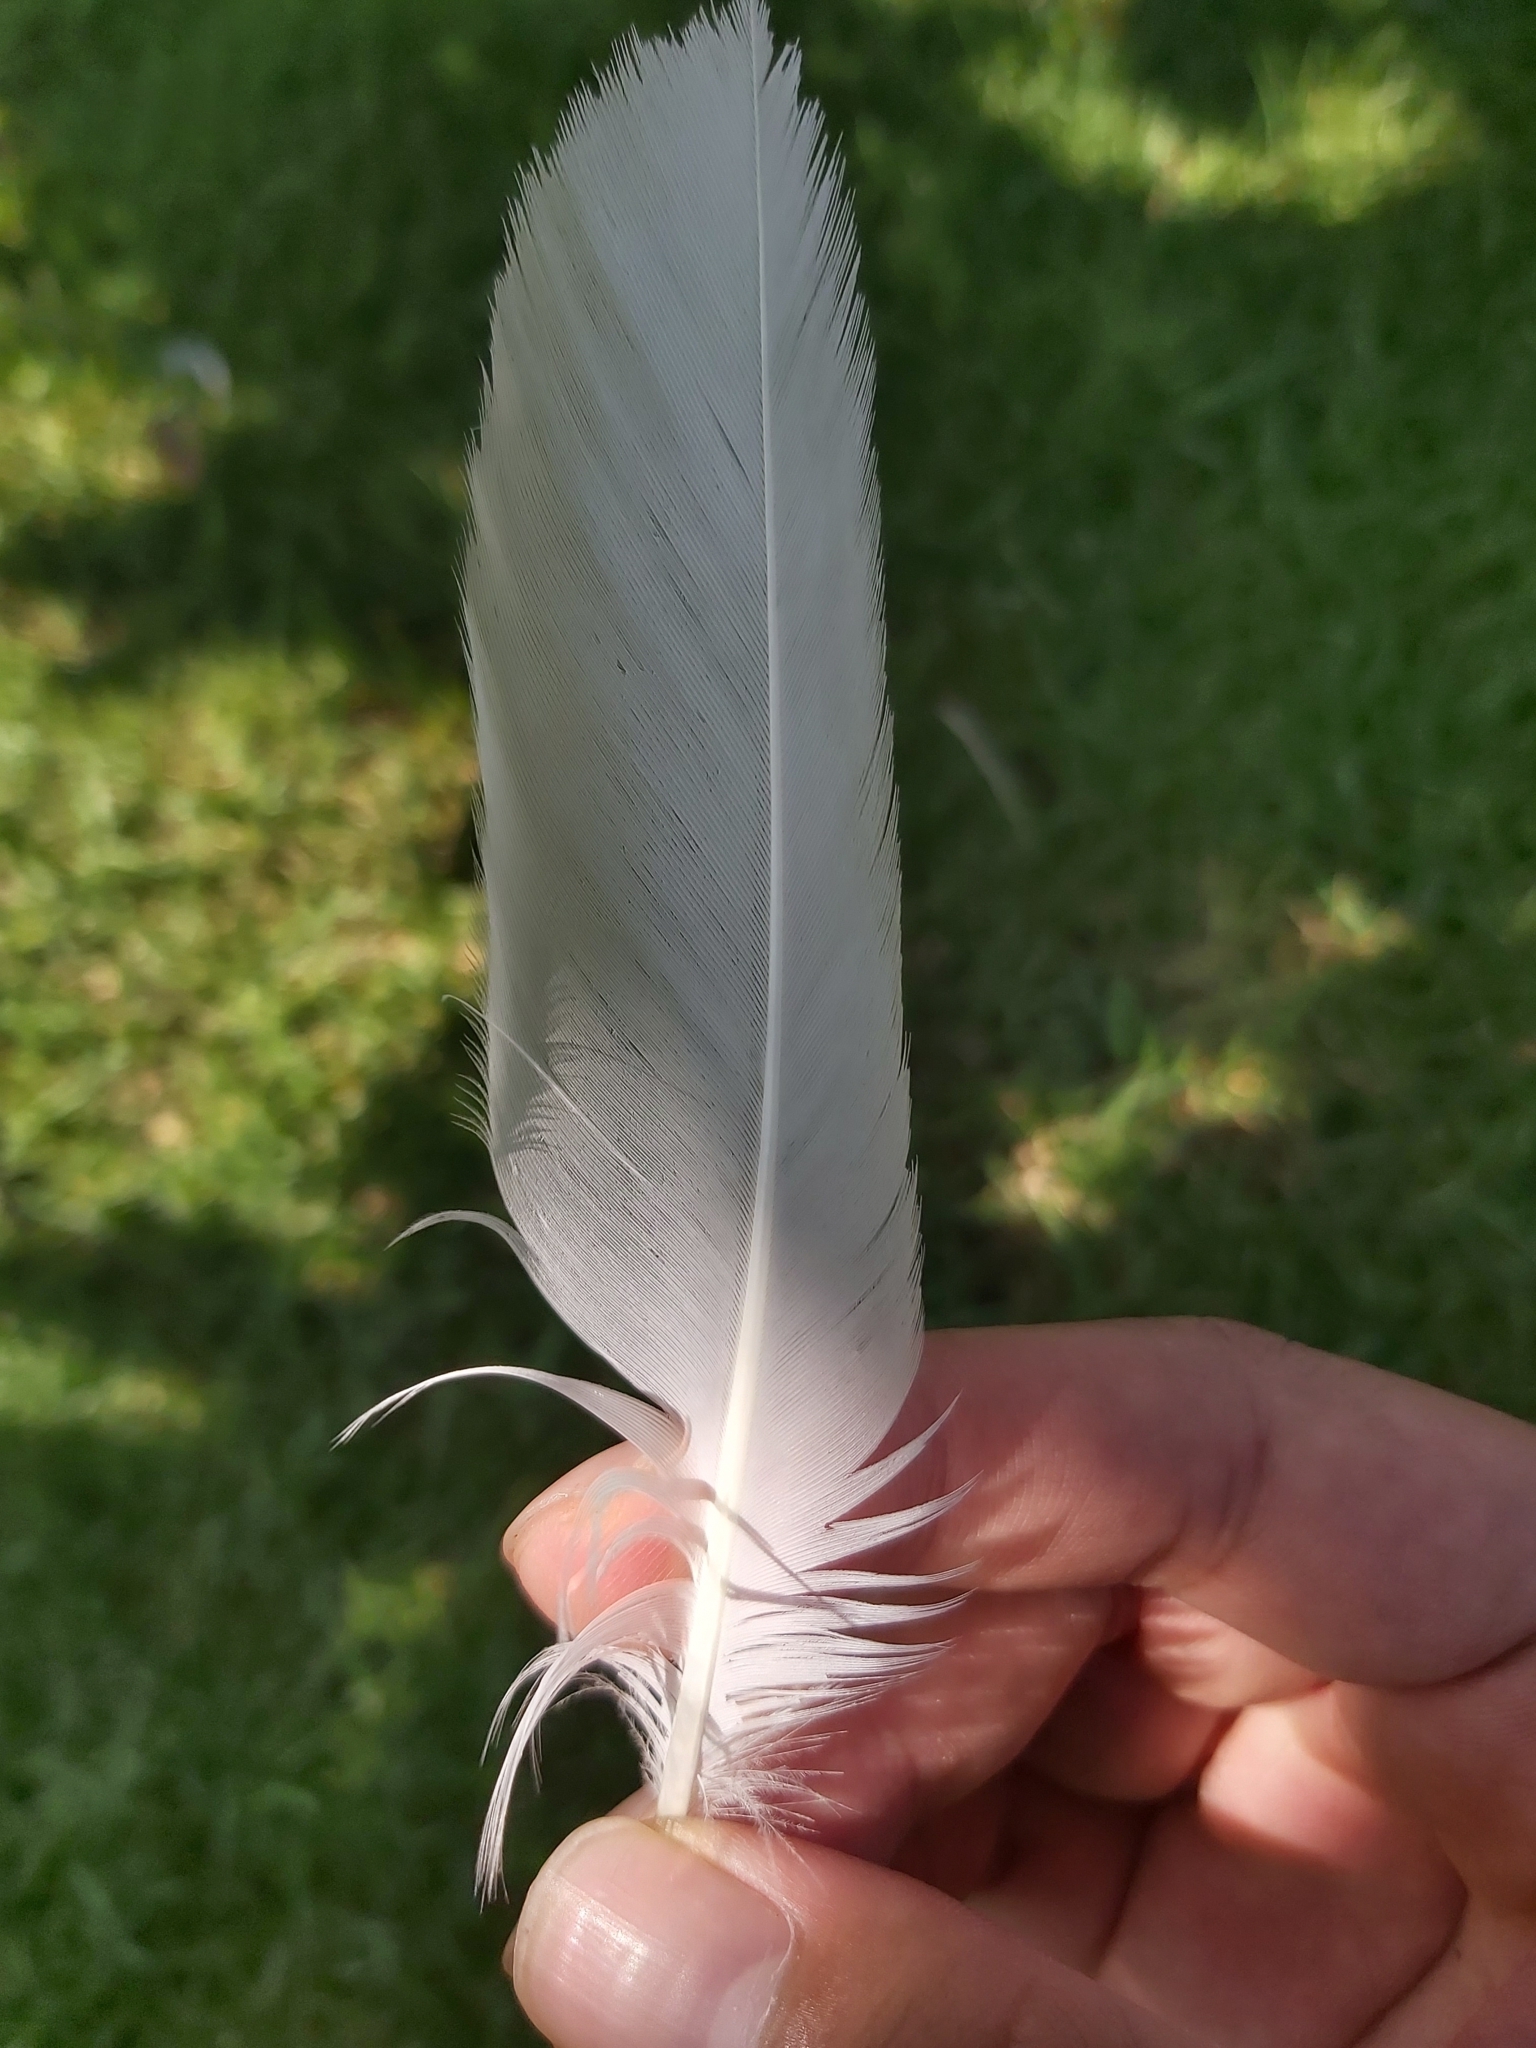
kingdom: Animalia
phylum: Chordata
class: Aves
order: Pelecaniformes
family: Threskiornithidae
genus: Threskiornis
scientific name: Threskiornis molucca
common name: Australian white ibis
